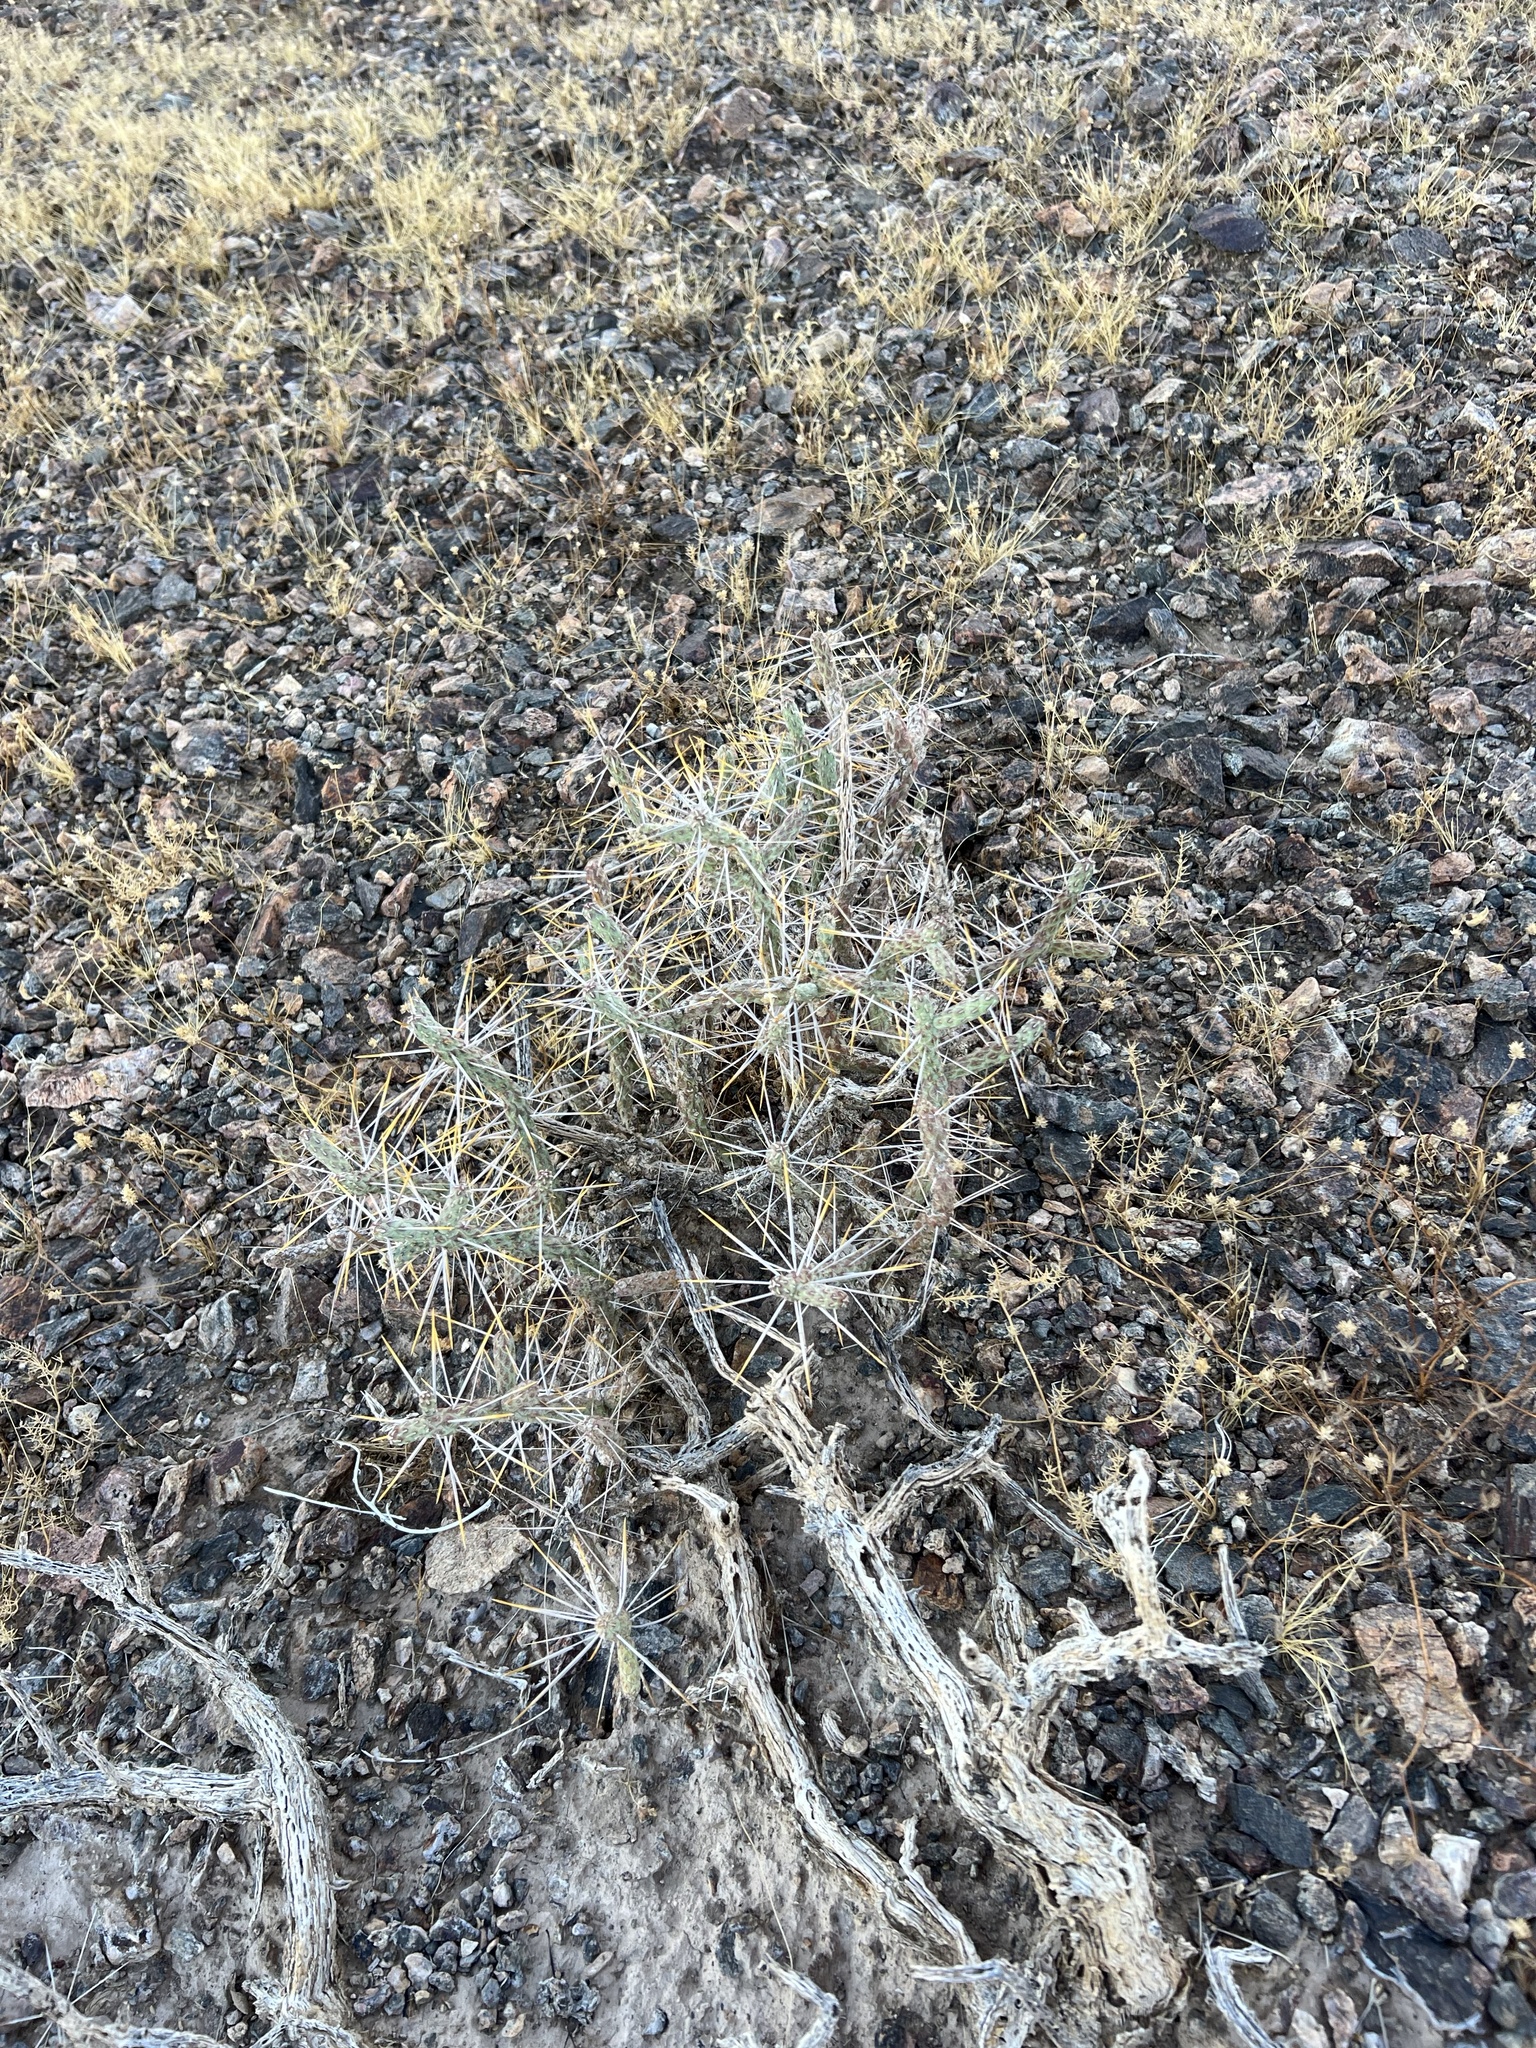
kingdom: Plantae
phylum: Tracheophyta
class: Magnoliopsida
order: Caryophyllales
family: Cactaceae
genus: Cylindropuntia
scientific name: Cylindropuntia ramosissima
